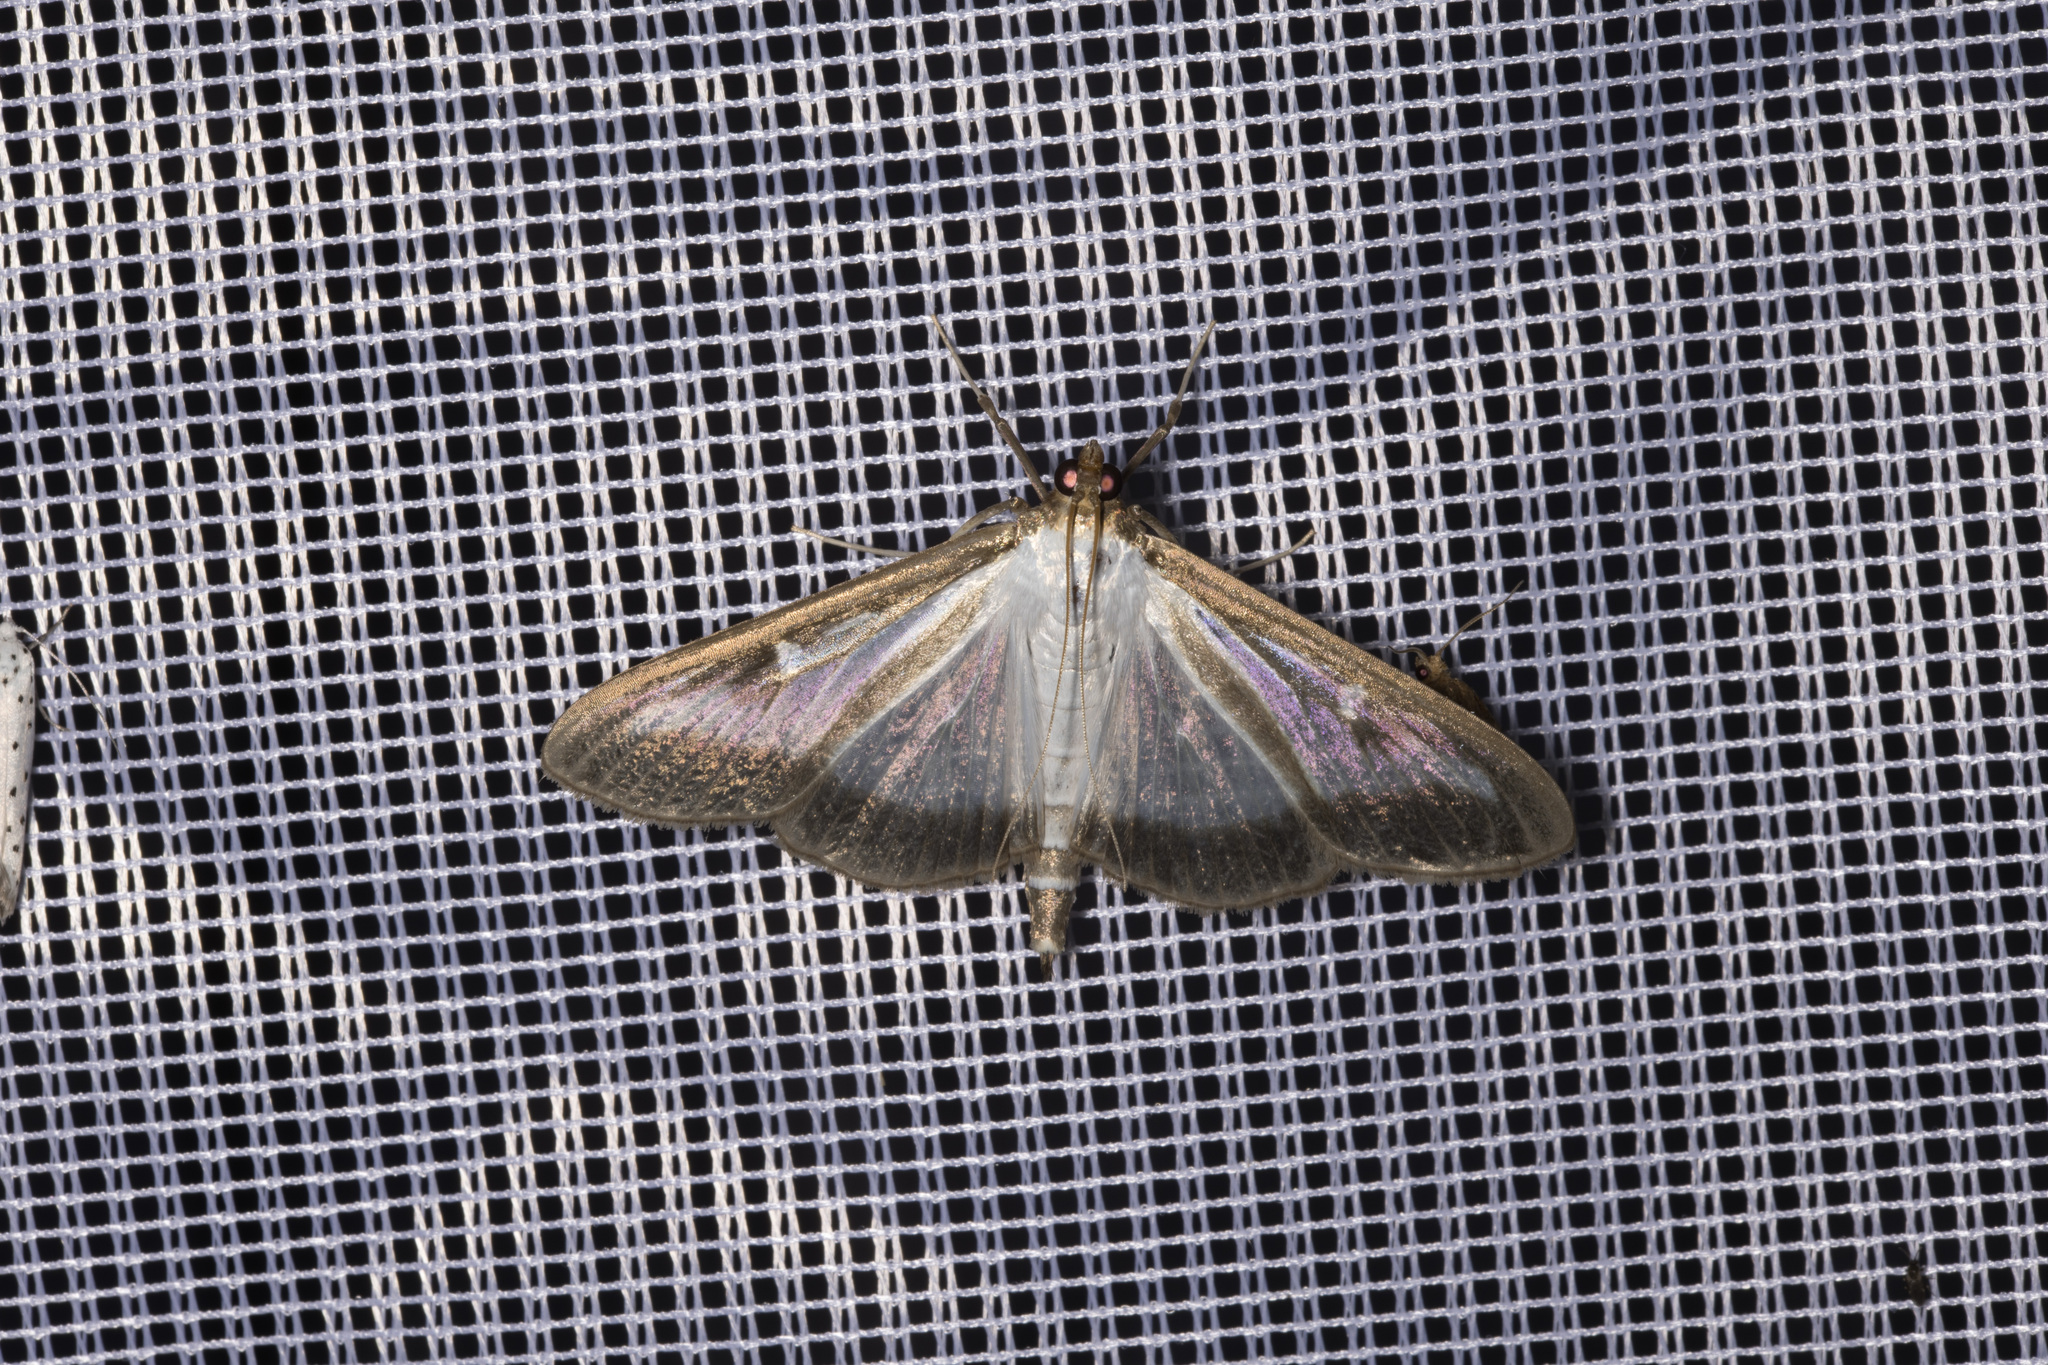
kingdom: Animalia
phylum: Arthropoda
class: Insecta
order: Lepidoptera
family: Crambidae
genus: Cydalima
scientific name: Cydalima perspectalis
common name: Box tree moth
